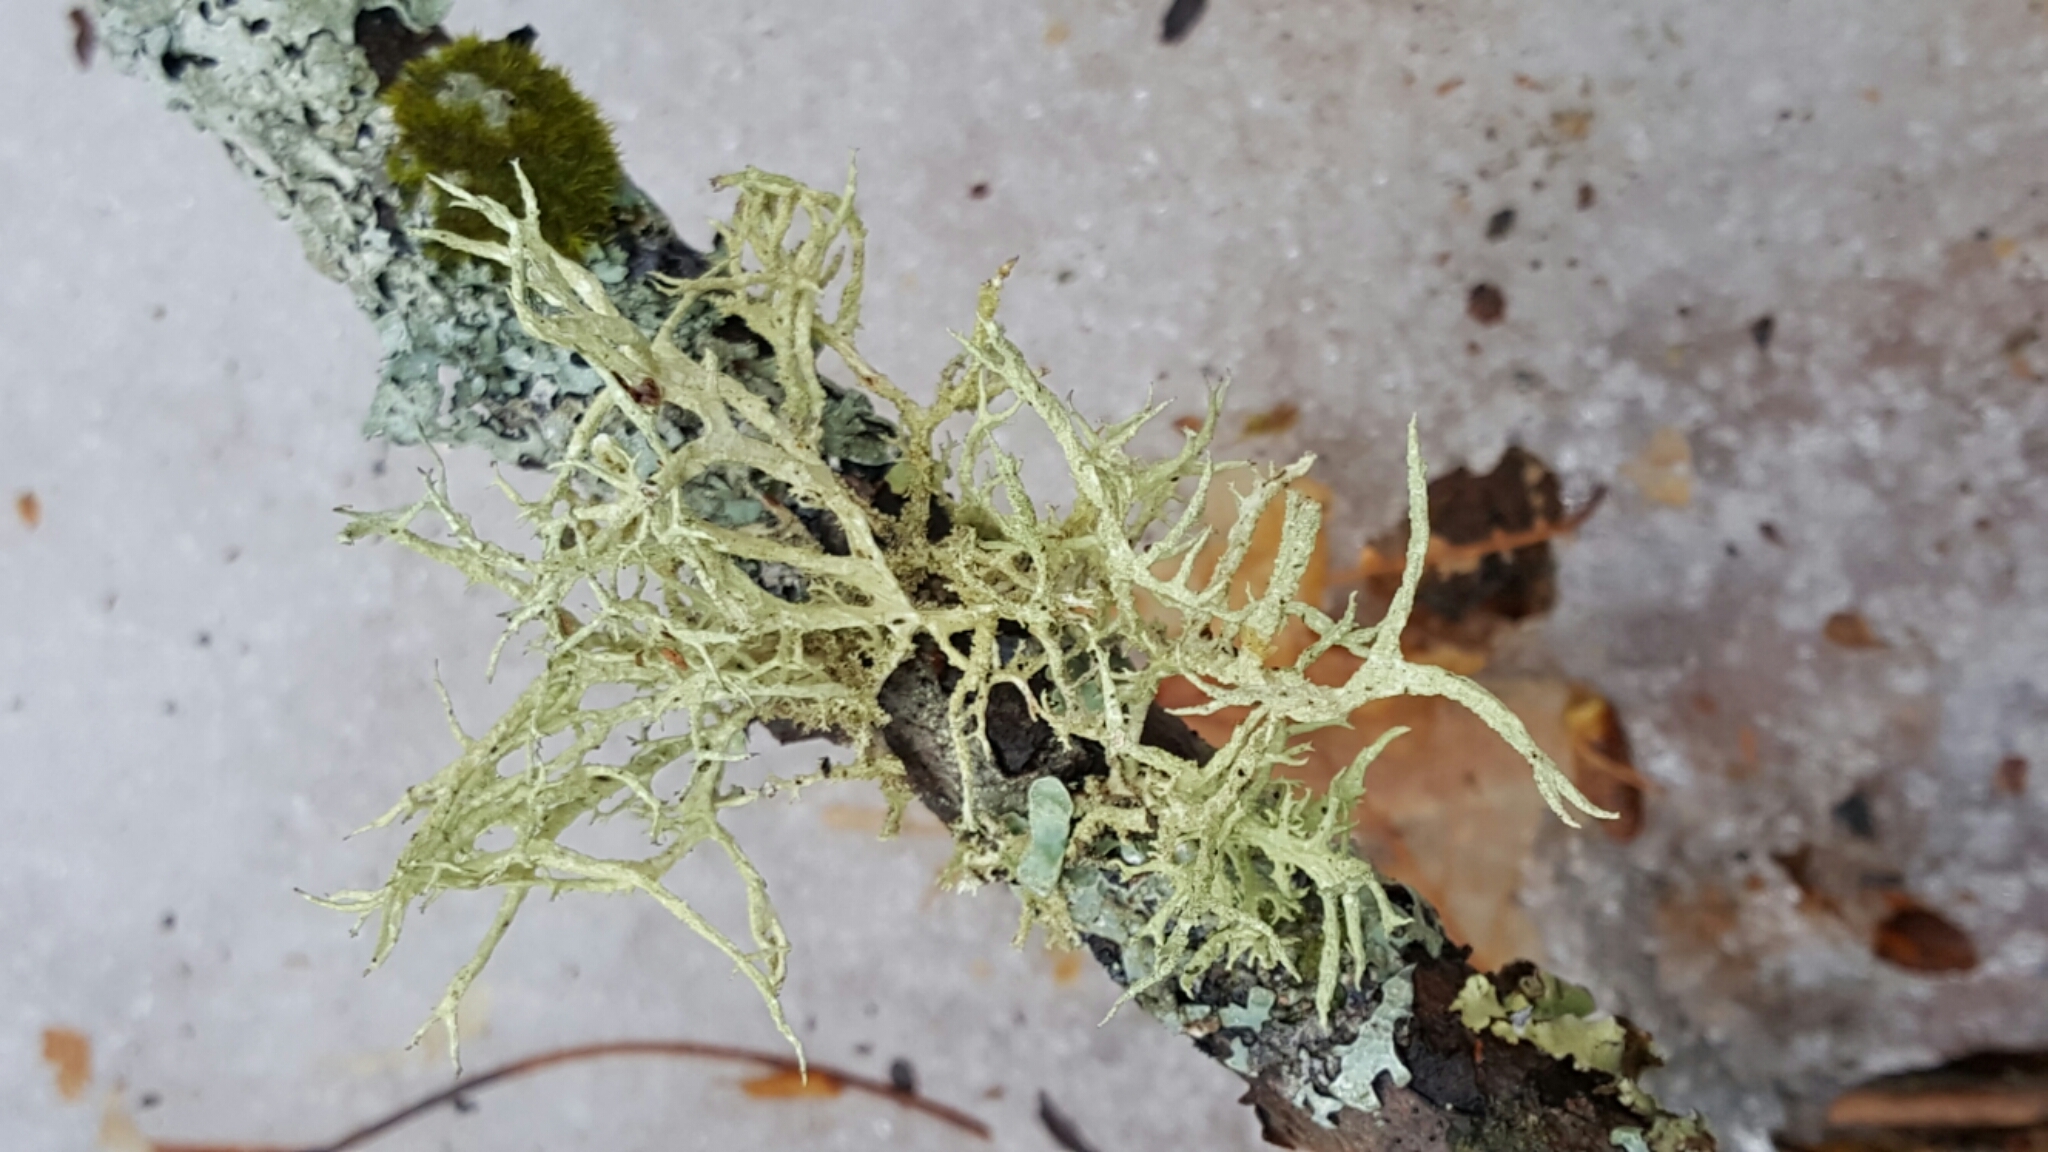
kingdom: Fungi
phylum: Ascomycota
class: Lecanoromycetes
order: Lecanorales
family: Parmeliaceae
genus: Evernia
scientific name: Evernia mesomorpha
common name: Boreal oak moss lichen
